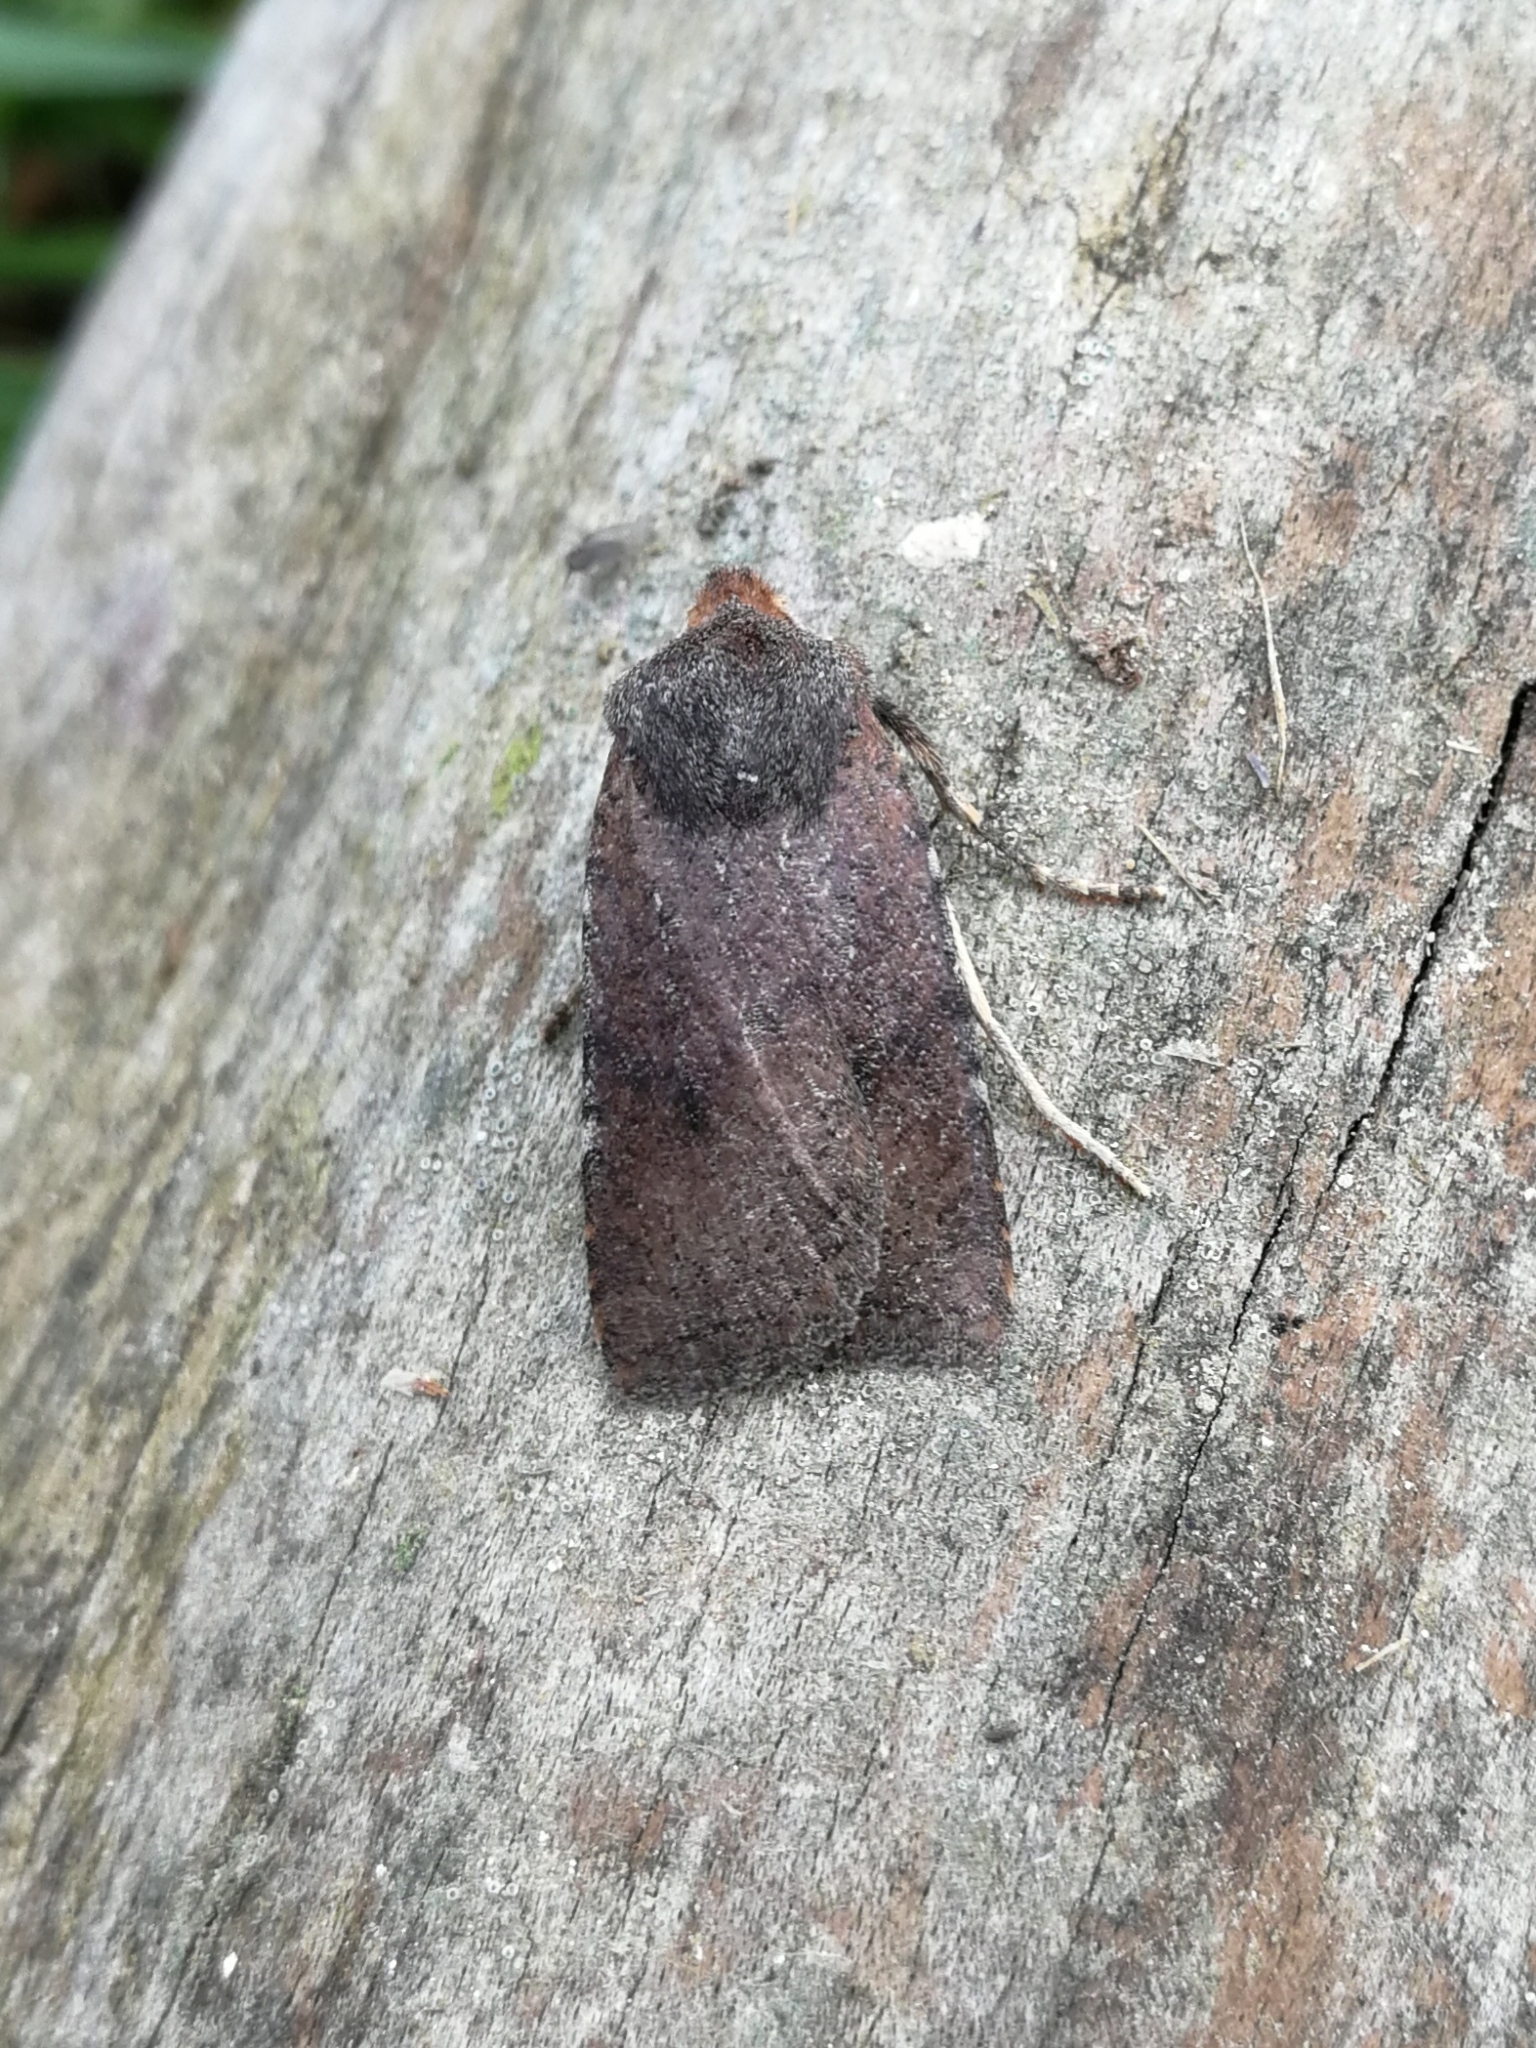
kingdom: Animalia
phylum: Arthropoda
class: Insecta
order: Lepidoptera
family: Noctuidae
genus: Conistra
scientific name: Conistra staudingeri
